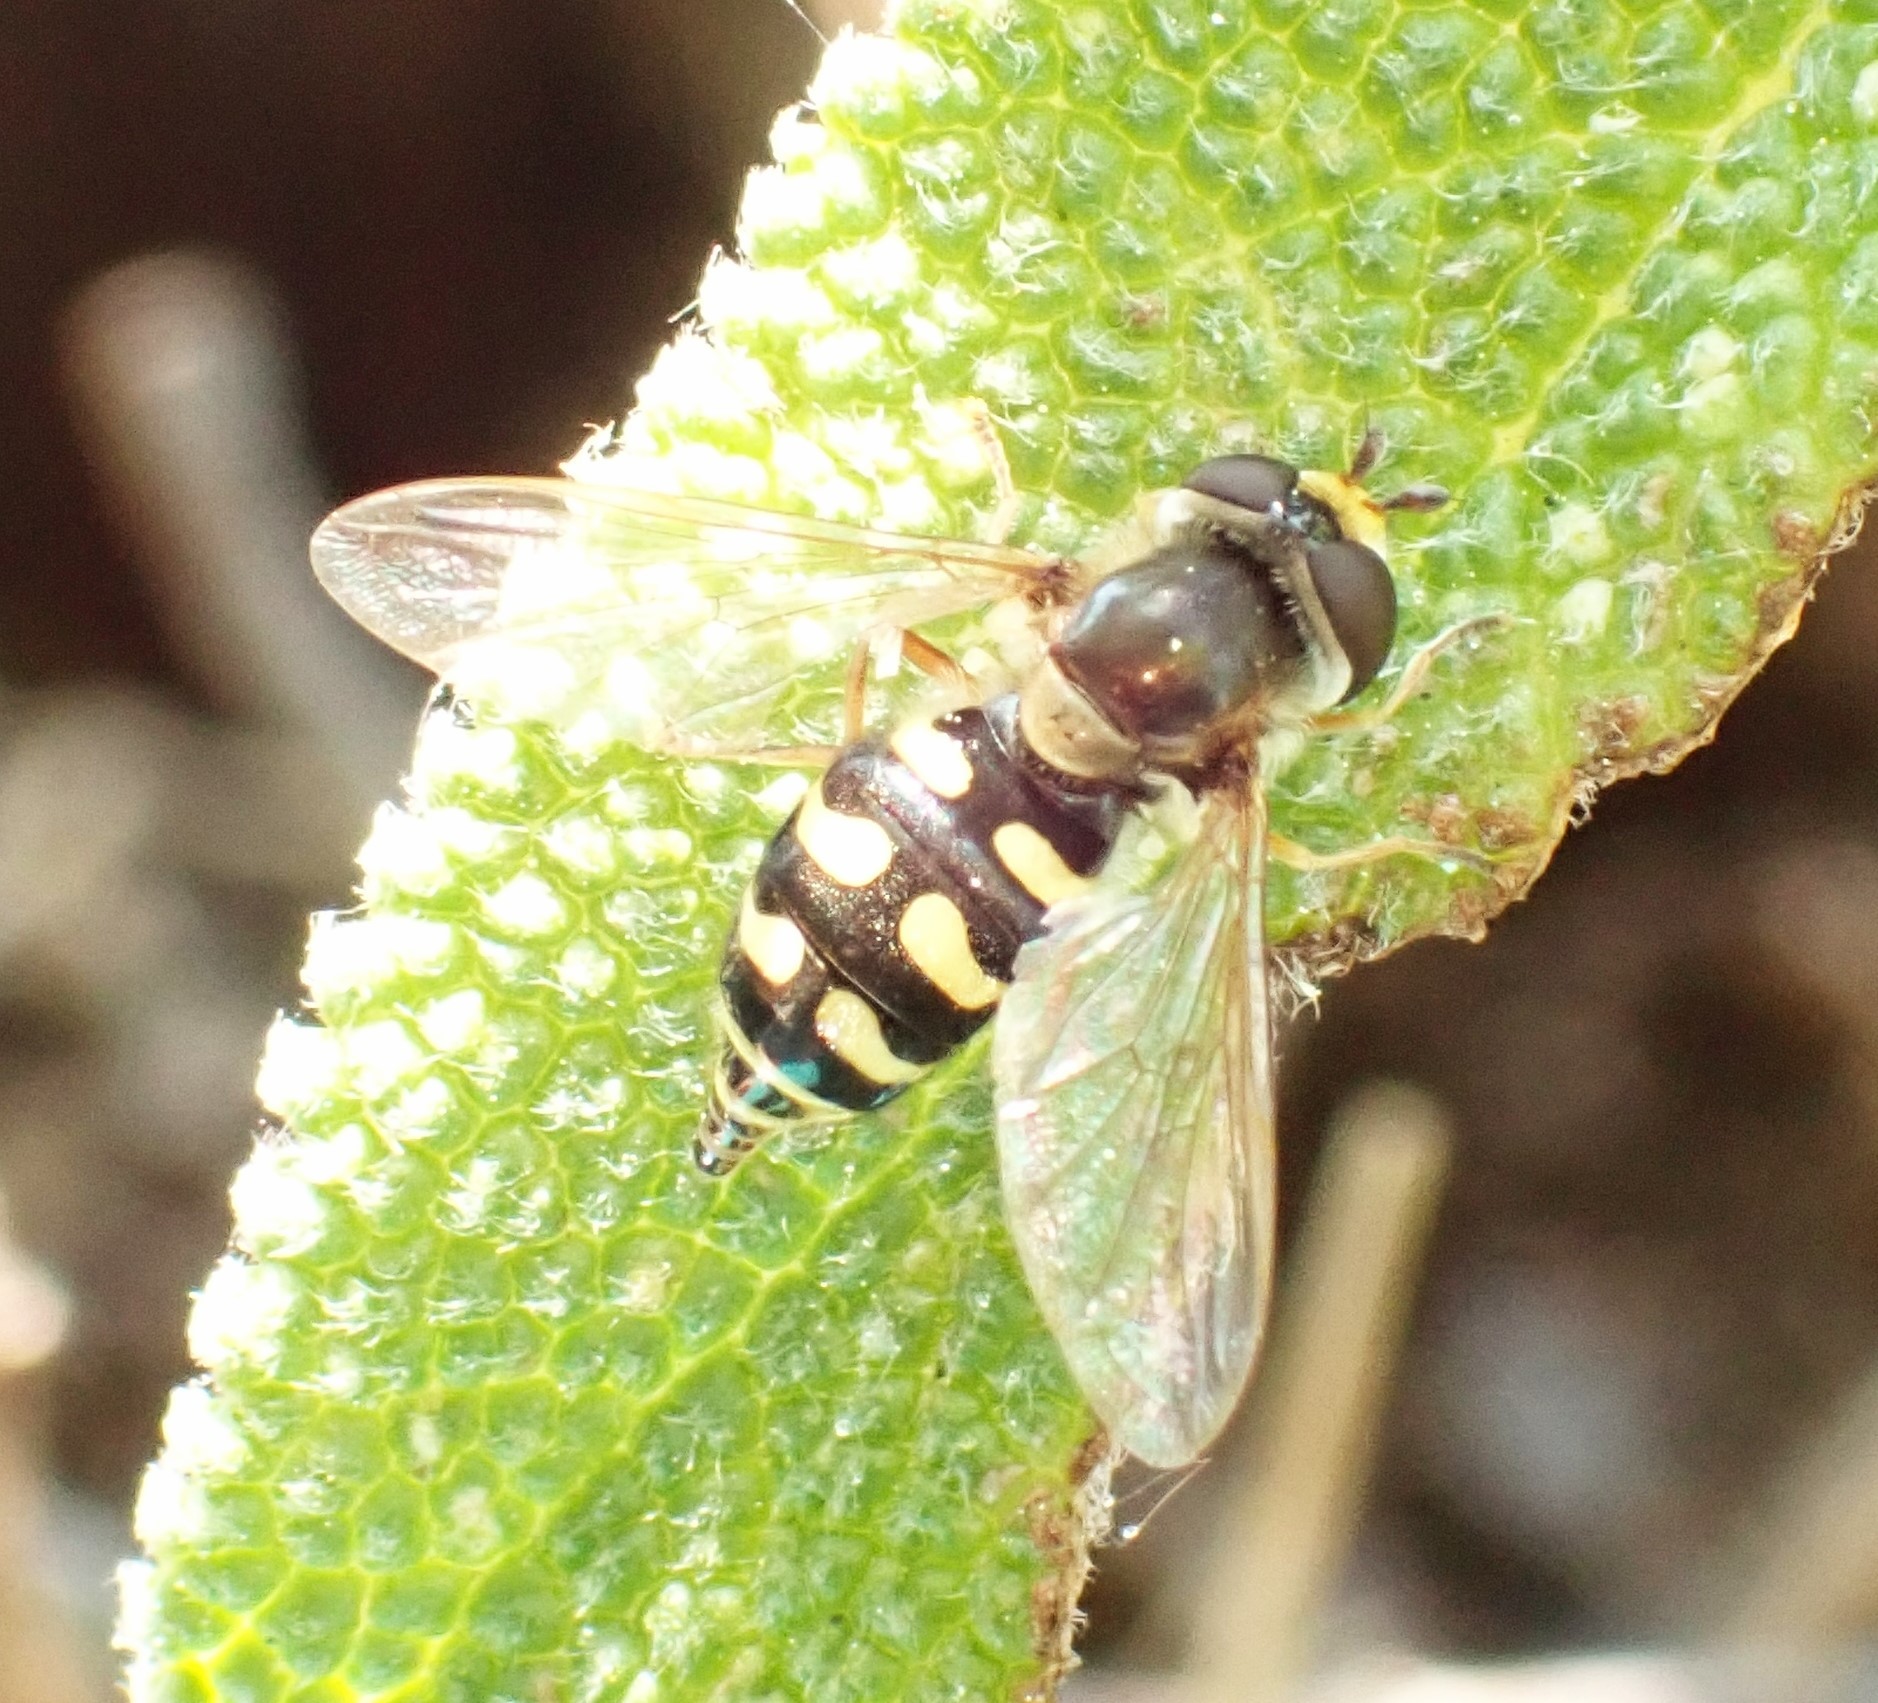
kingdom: Animalia
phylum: Arthropoda
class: Insecta
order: Diptera
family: Syrphidae
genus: Eupeodes
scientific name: Eupeodes corollae
